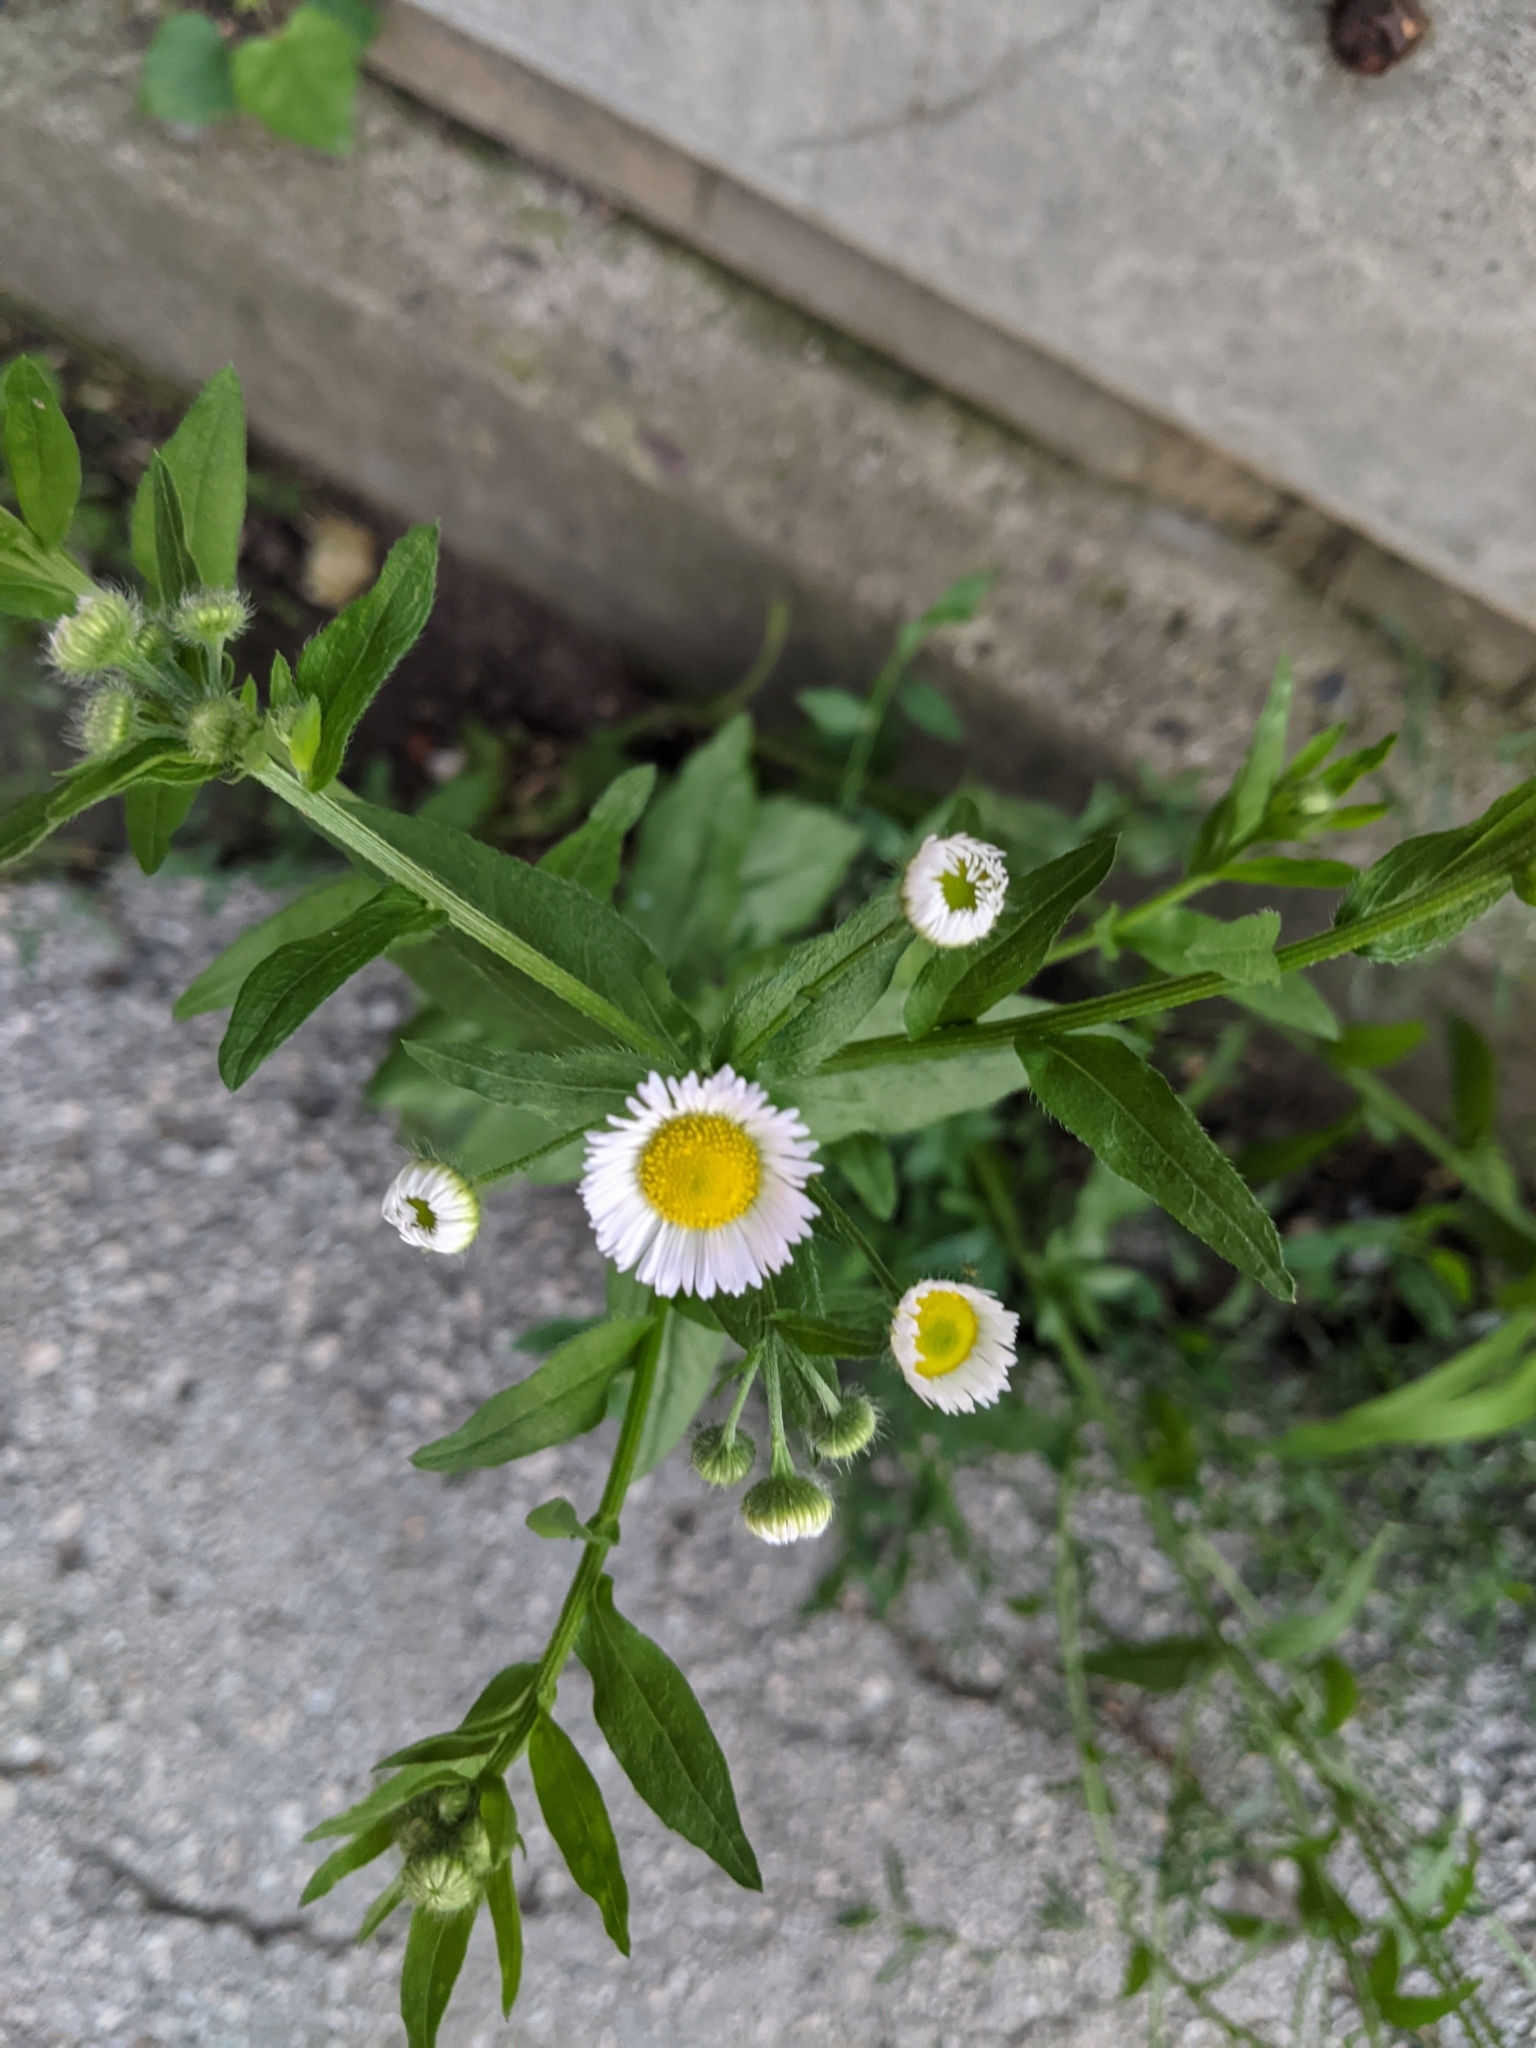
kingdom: Plantae
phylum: Tracheophyta
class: Magnoliopsida
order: Asterales
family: Asteraceae
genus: Erigeron
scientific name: Erigeron annuus
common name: Tall fleabane
